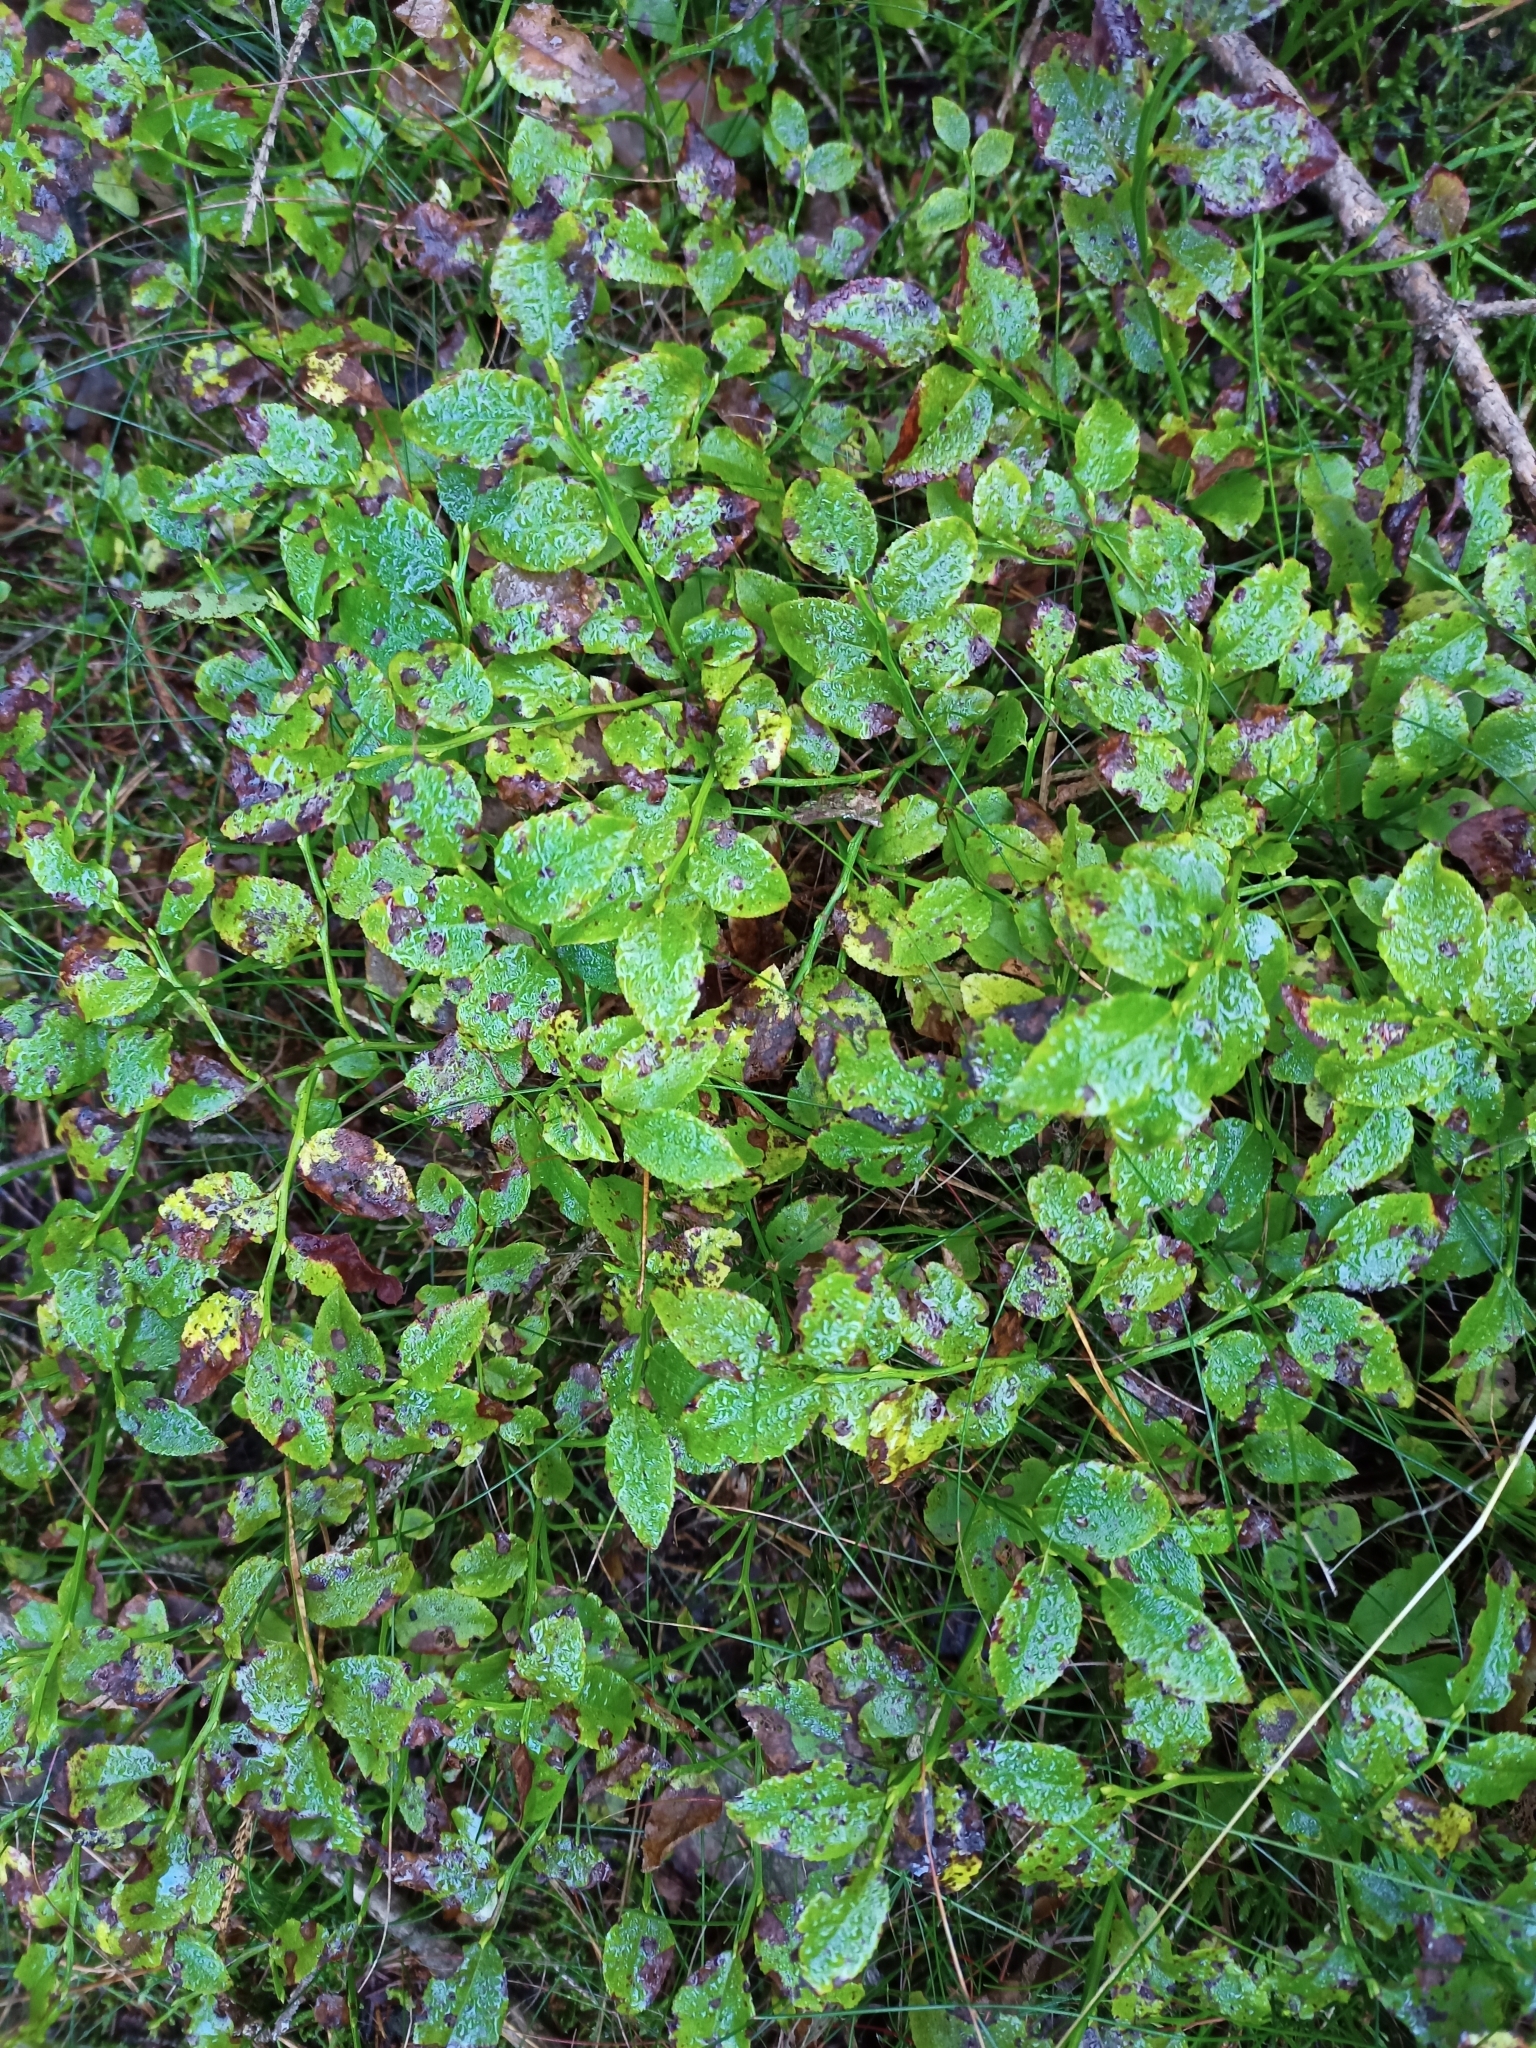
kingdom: Plantae
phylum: Tracheophyta
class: Magnoliopsida
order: Ericales
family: Ericaceae
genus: Vaccinium
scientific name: Vaccinium myrtillus
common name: Bilberry
